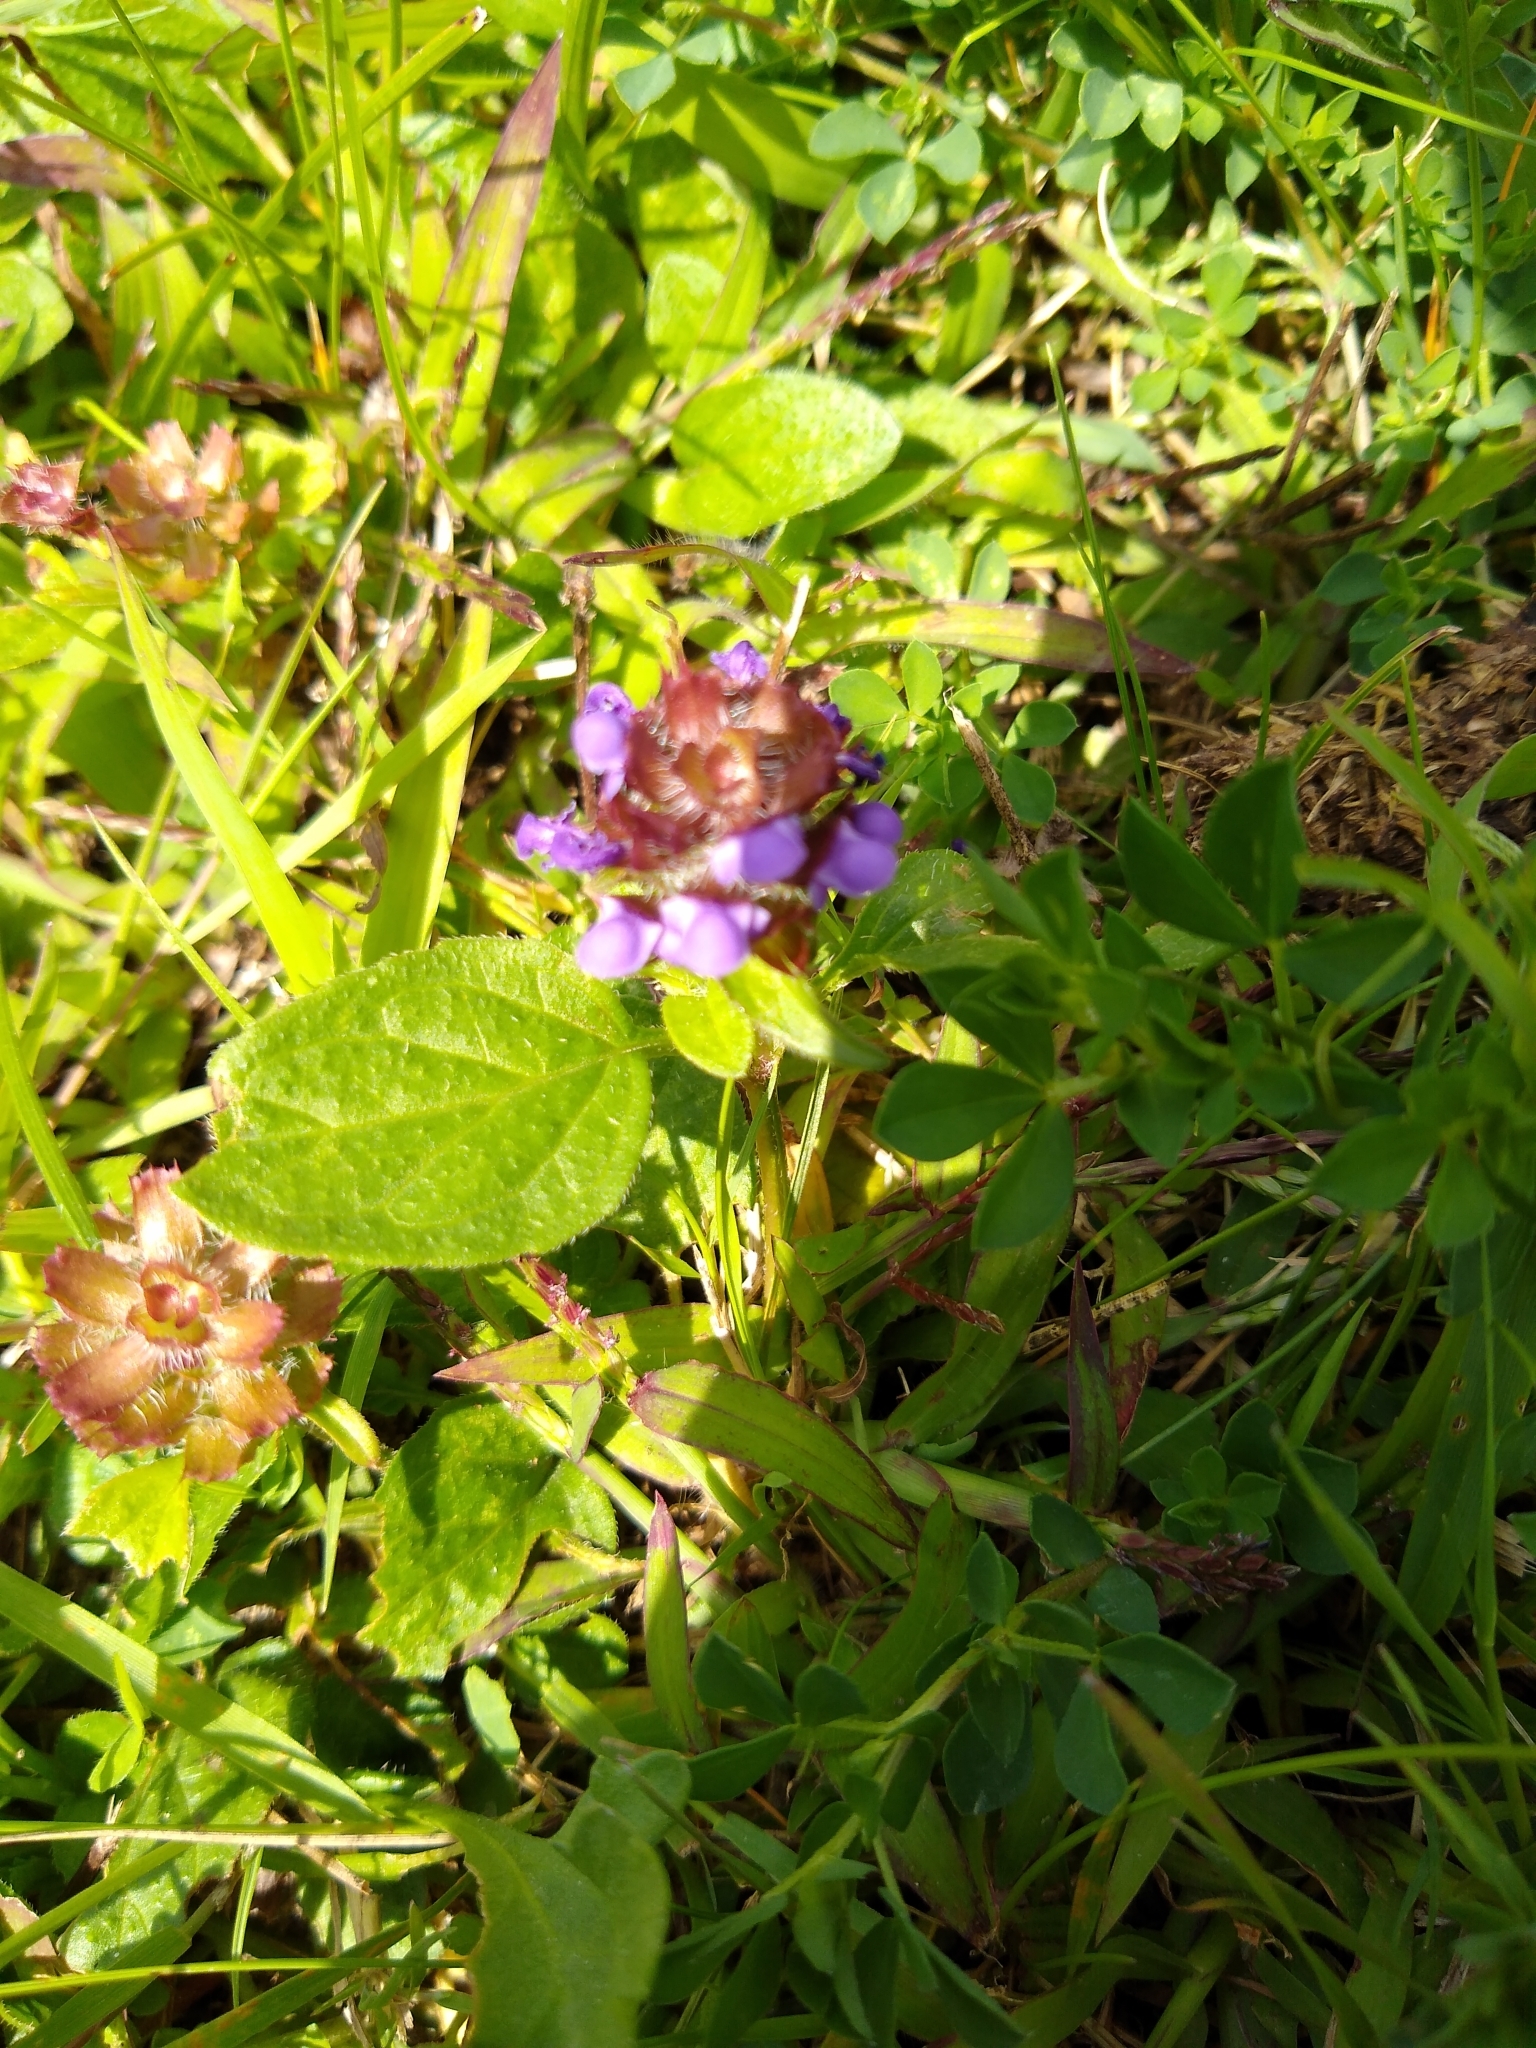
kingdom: Plantae
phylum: Tracheophyta
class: Magnoliopsida
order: Lamiales
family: Lamiaceae
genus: Prunella
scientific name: Prunella vulgaris
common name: Heal-all
